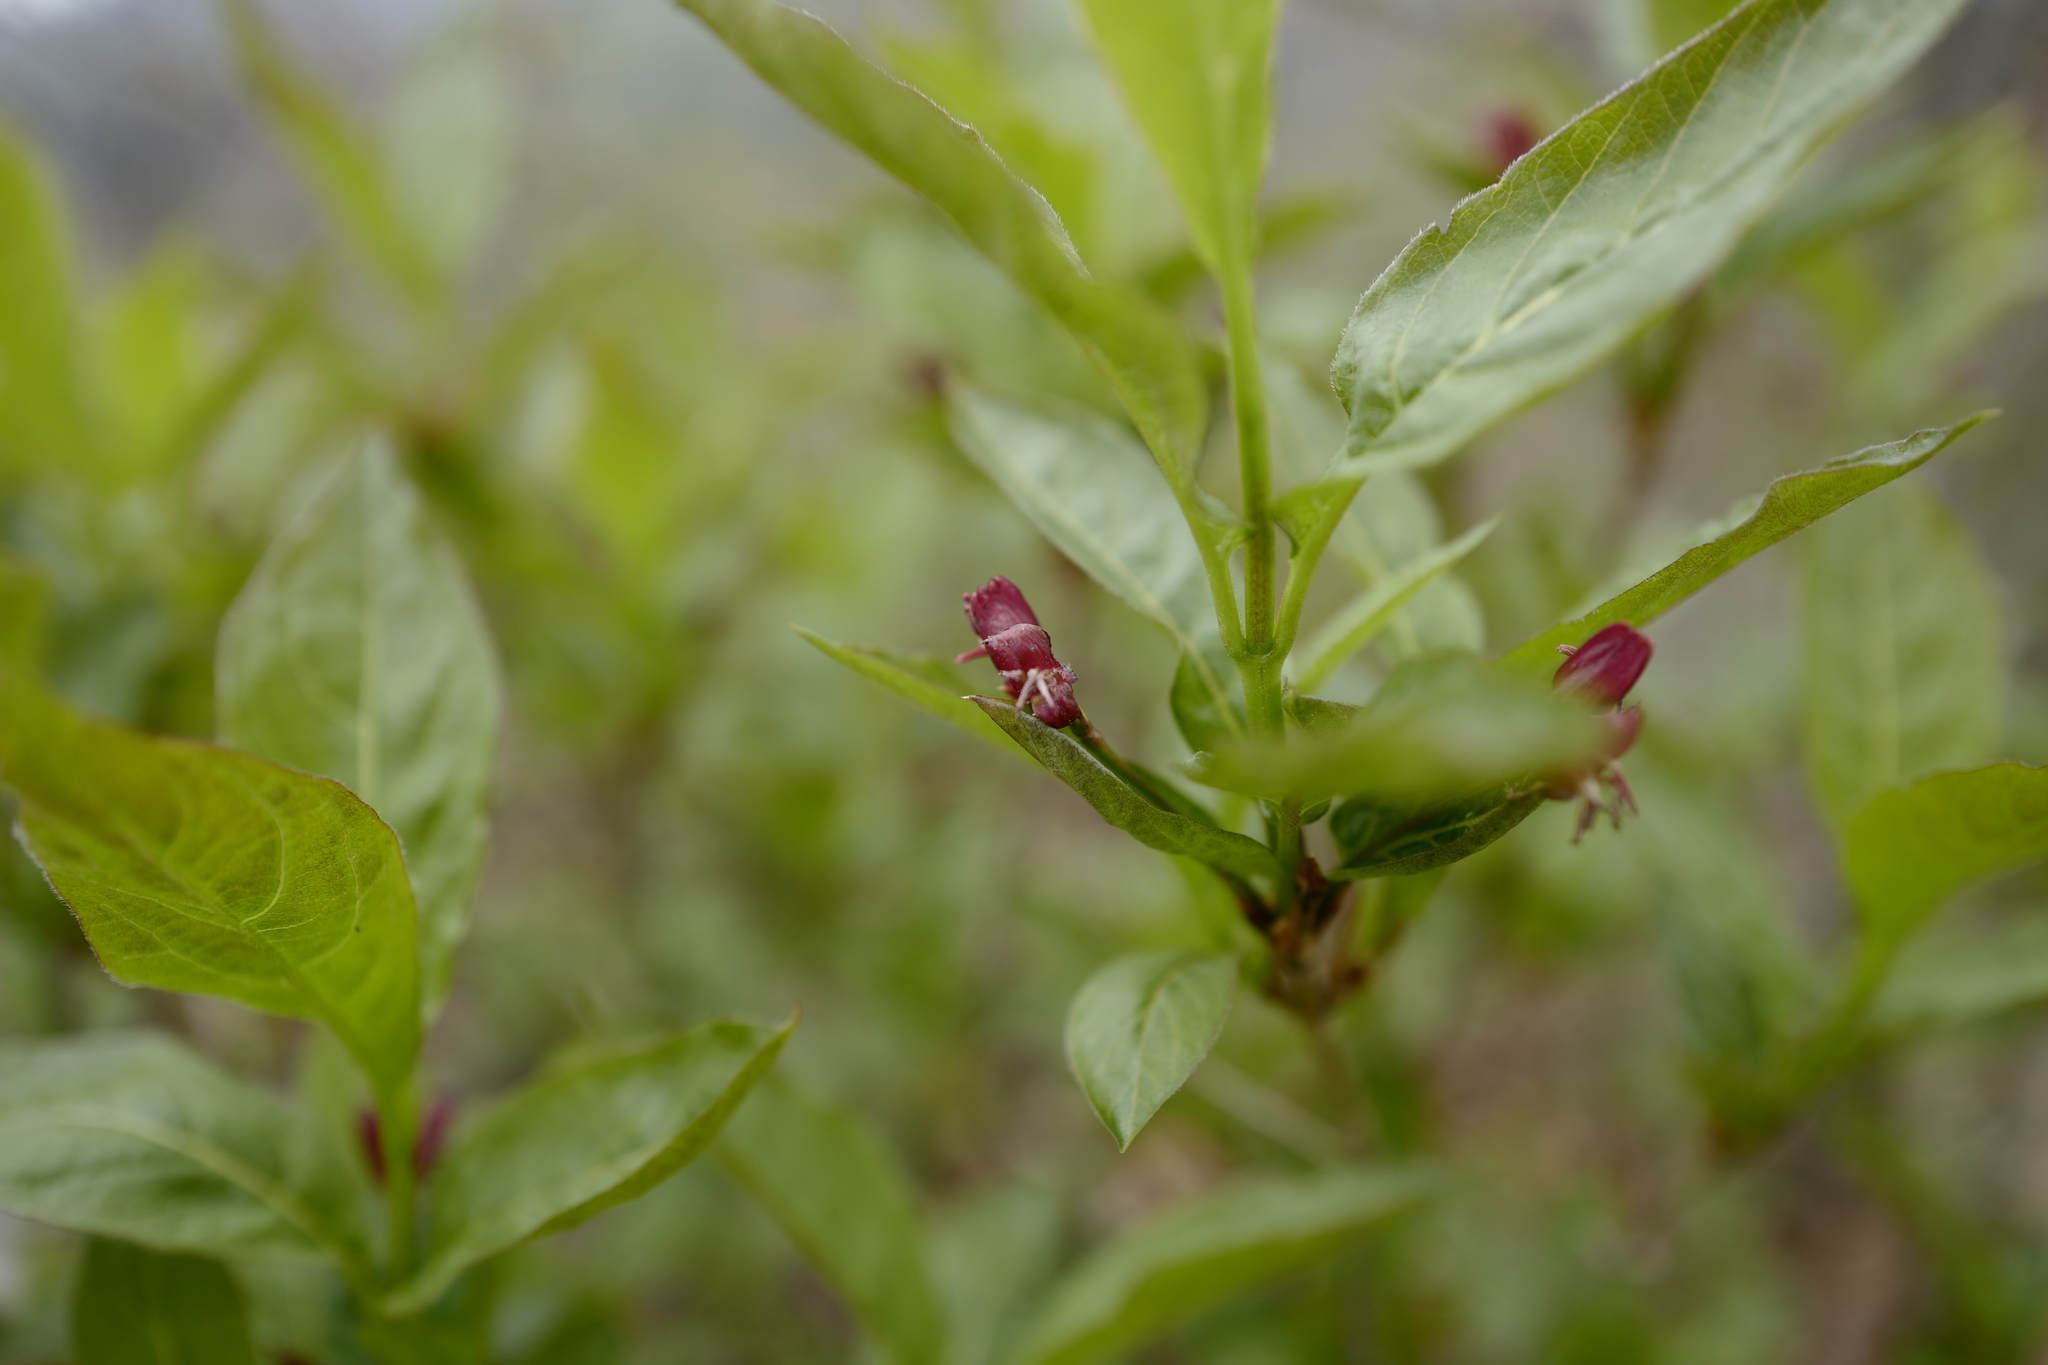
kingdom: Plantae
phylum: Tracheophyta
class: Magnoliopsida
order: Dipsacales
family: Caprifoliaceae
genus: Lonicera
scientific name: Lonicera alpigena
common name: Alpine honeysuckle
